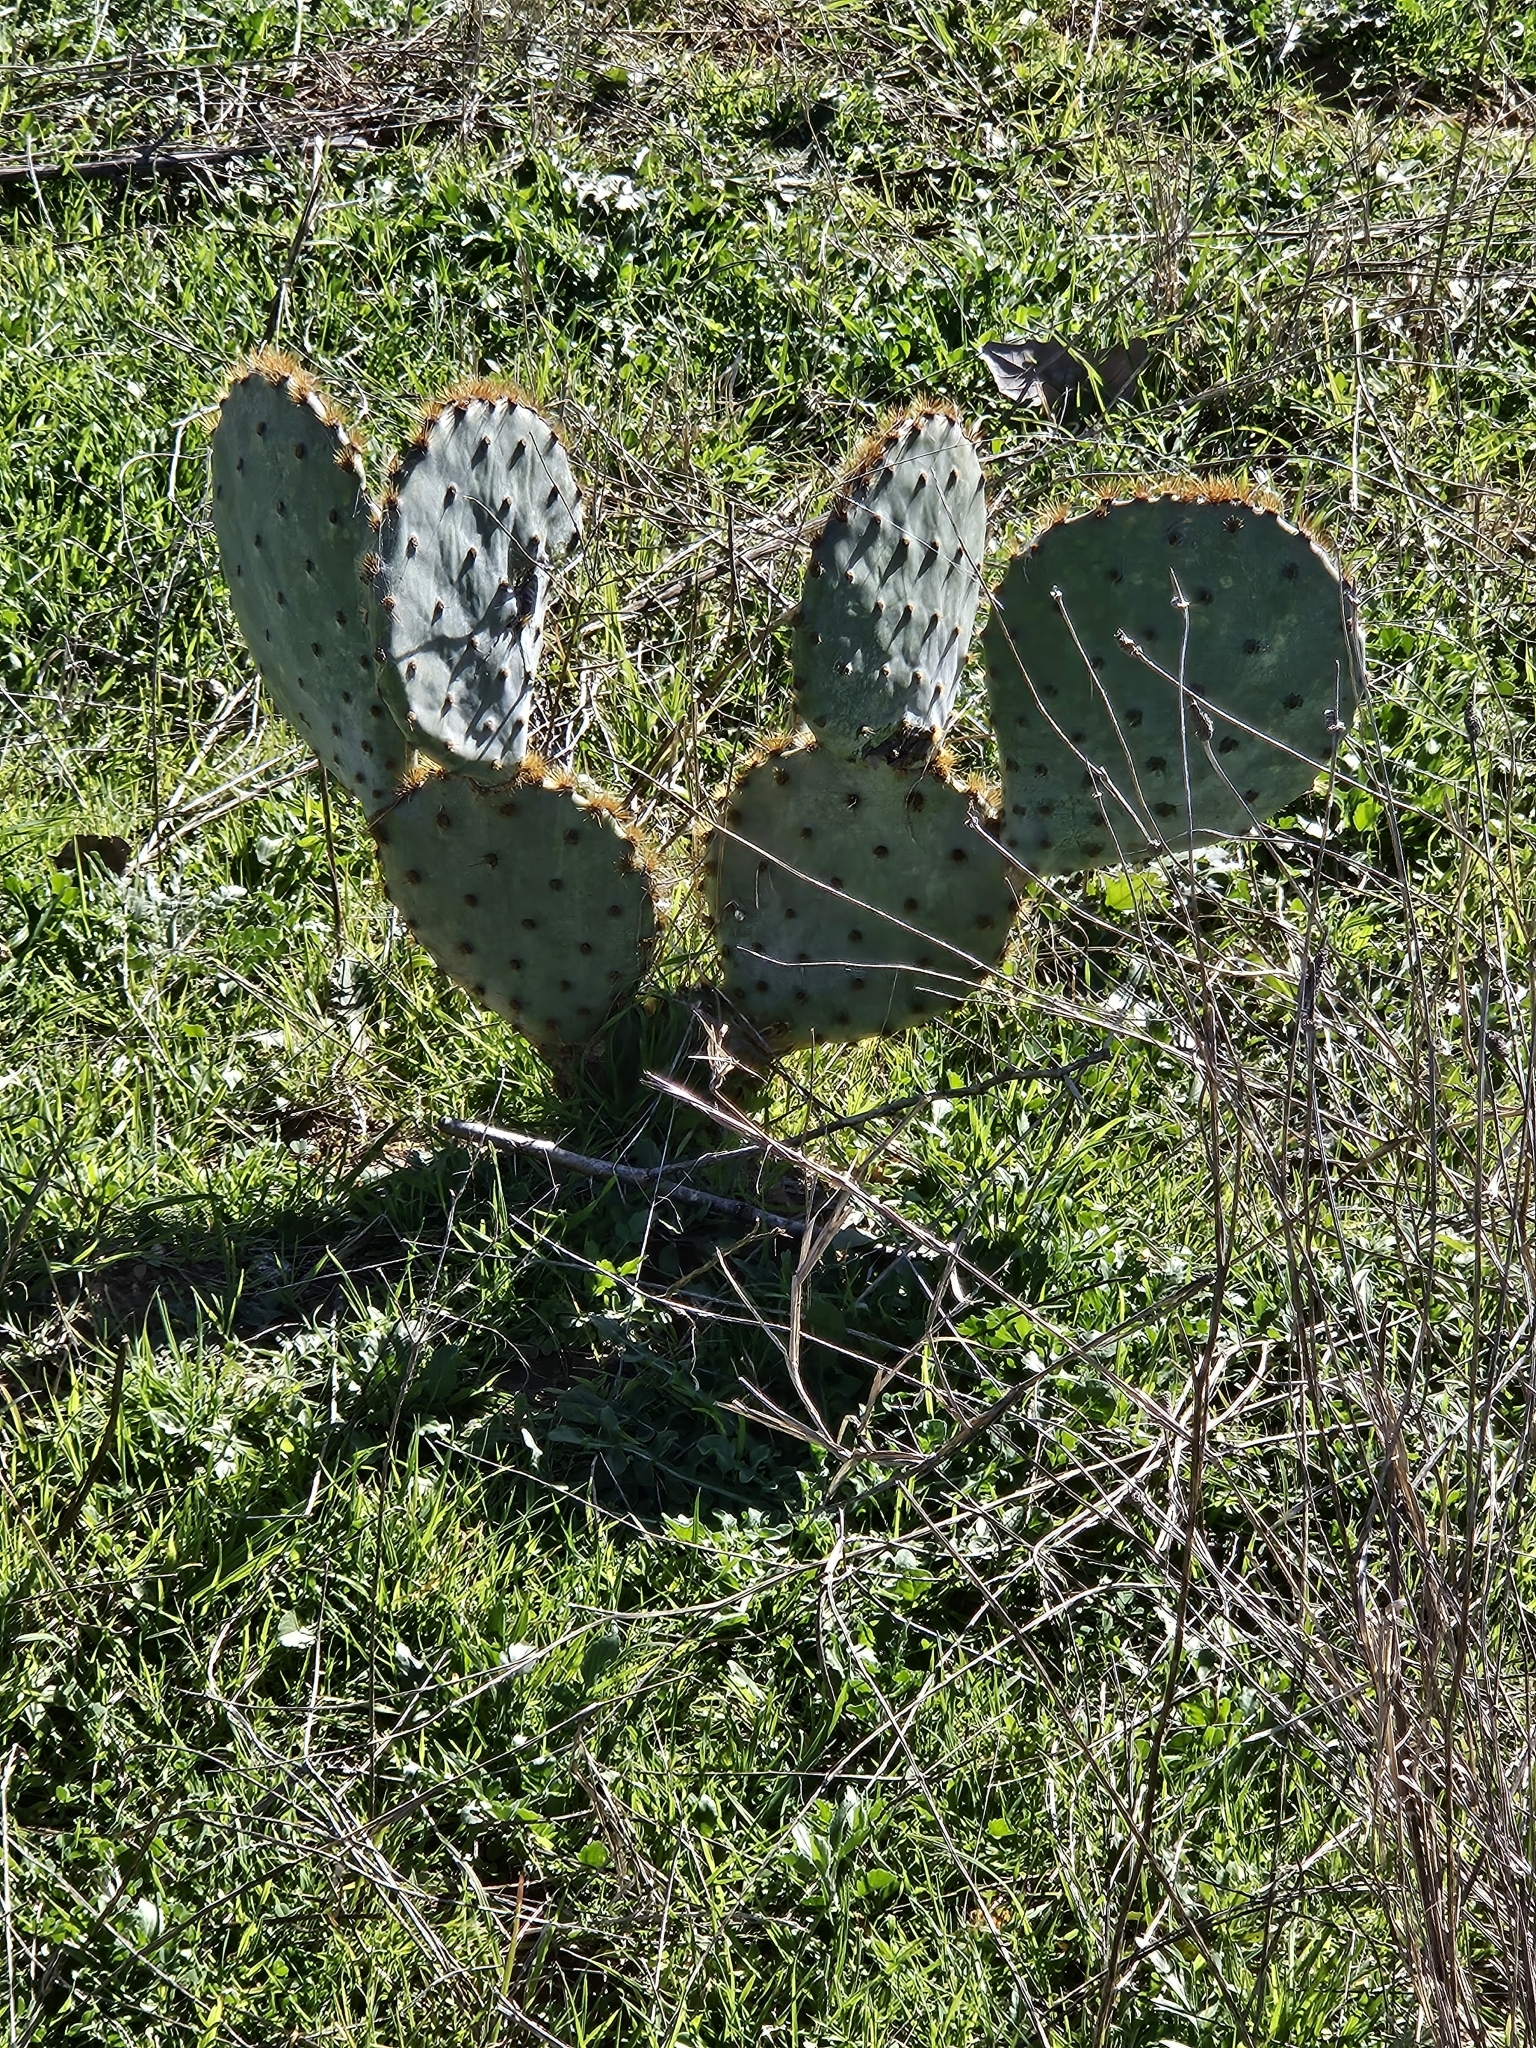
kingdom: Plantae
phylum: Tracheophyta
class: Magnoliopsida
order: Caryophyllales
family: Cactaceae
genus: Opuntia
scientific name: Opuntia engelmannii
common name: Cactus-apple
